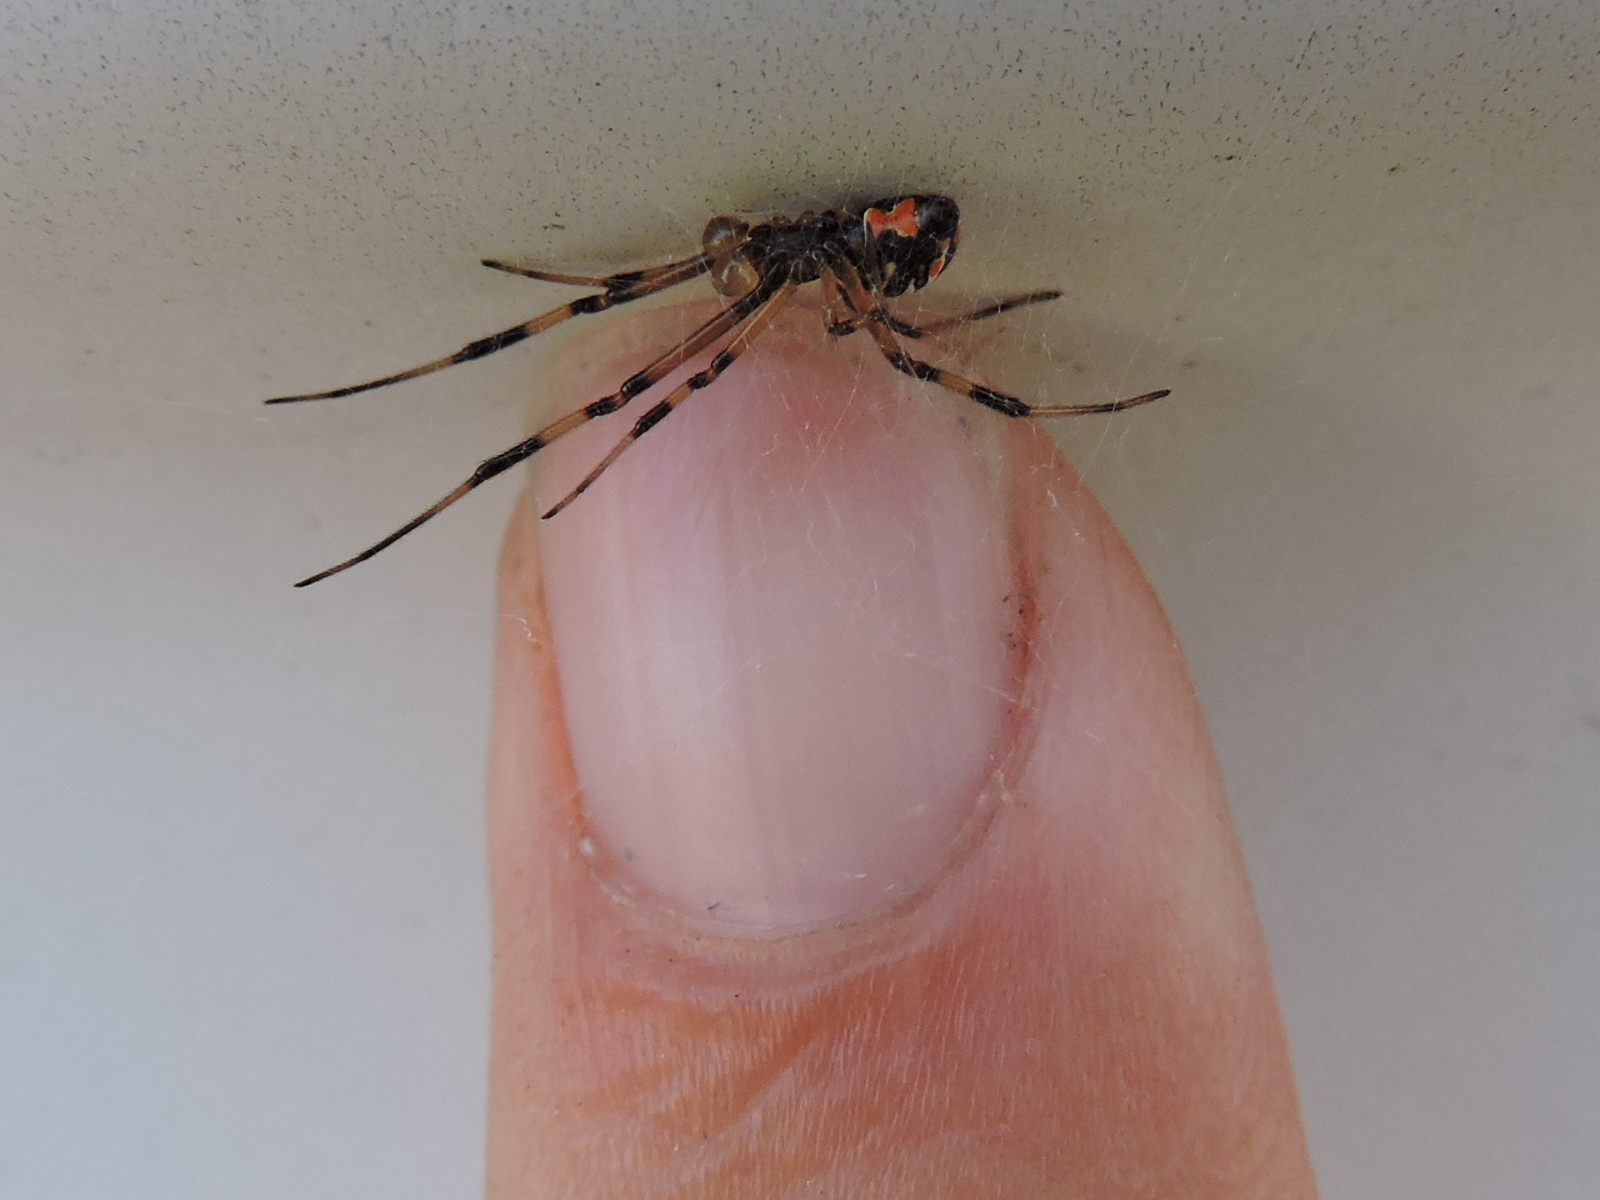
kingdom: Animalia
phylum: Arthropoda
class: Arachnida
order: Araneae
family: Theridiidae
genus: Latrodectus
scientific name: Latrodectus geometricus
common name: Brown widow spider
